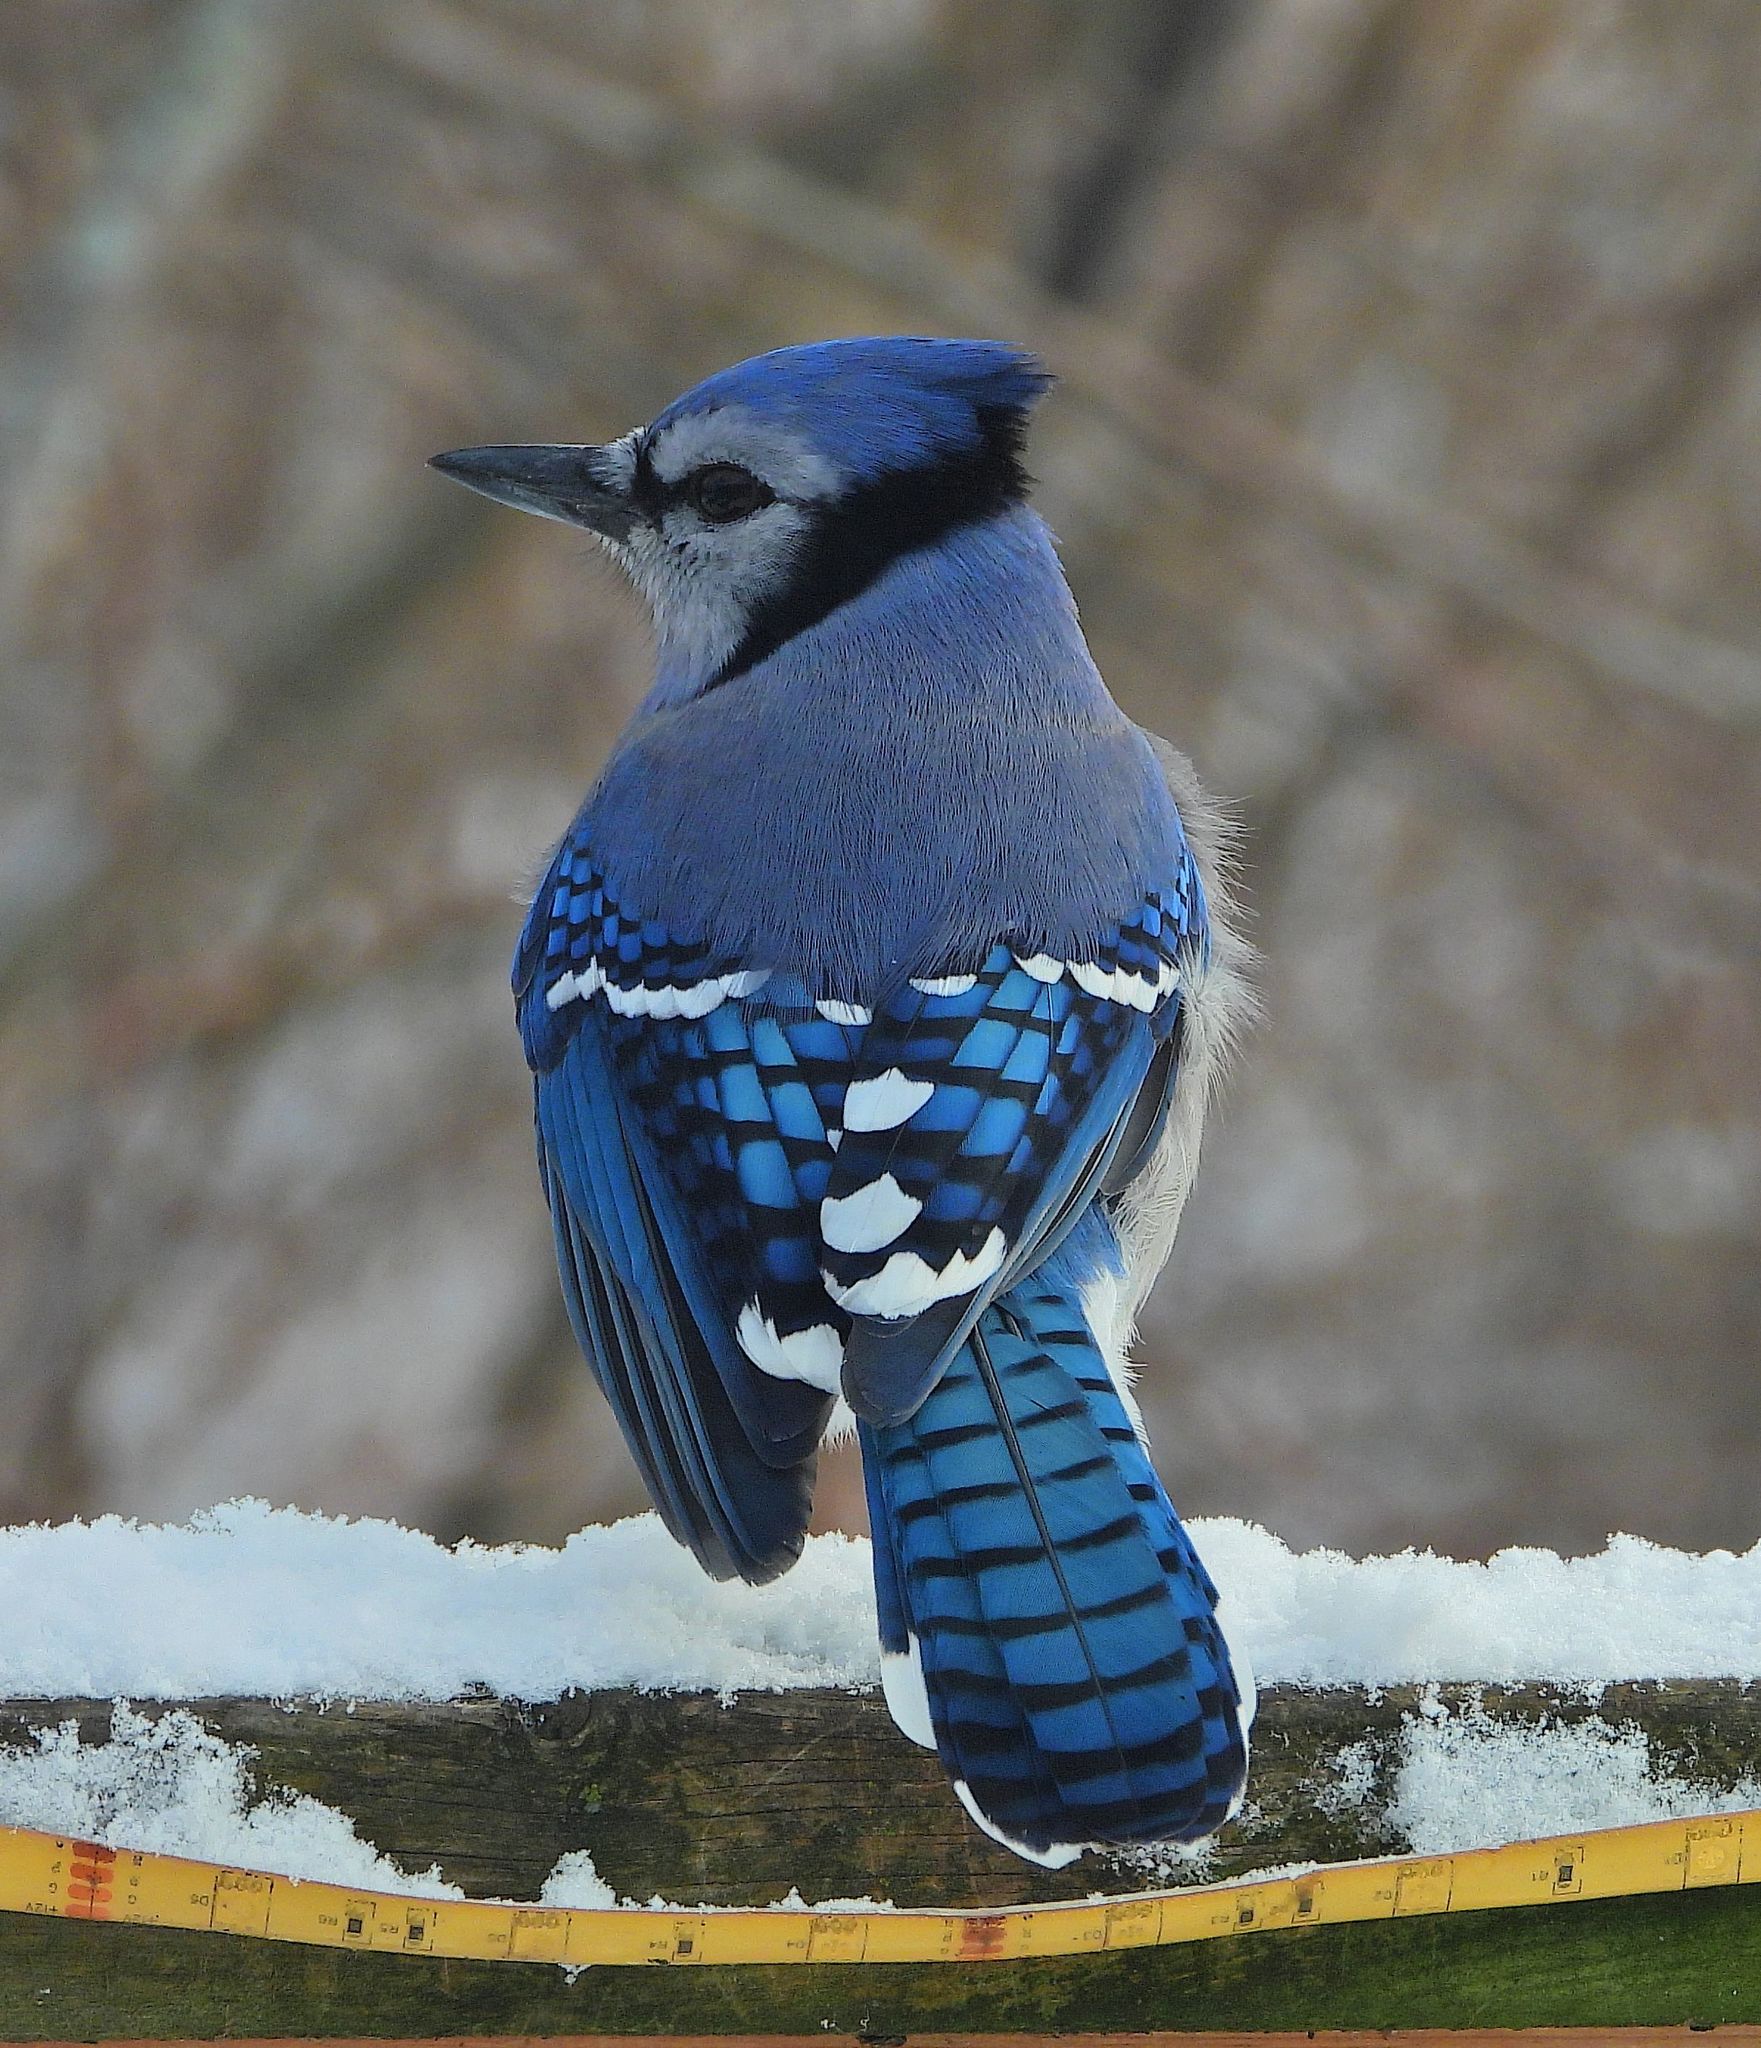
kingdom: Animalia
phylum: Chordata
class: Aves
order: Passeriformes
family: Corvidae
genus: Cyanocitta
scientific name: Cyanocitta cristata
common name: Blue jay
